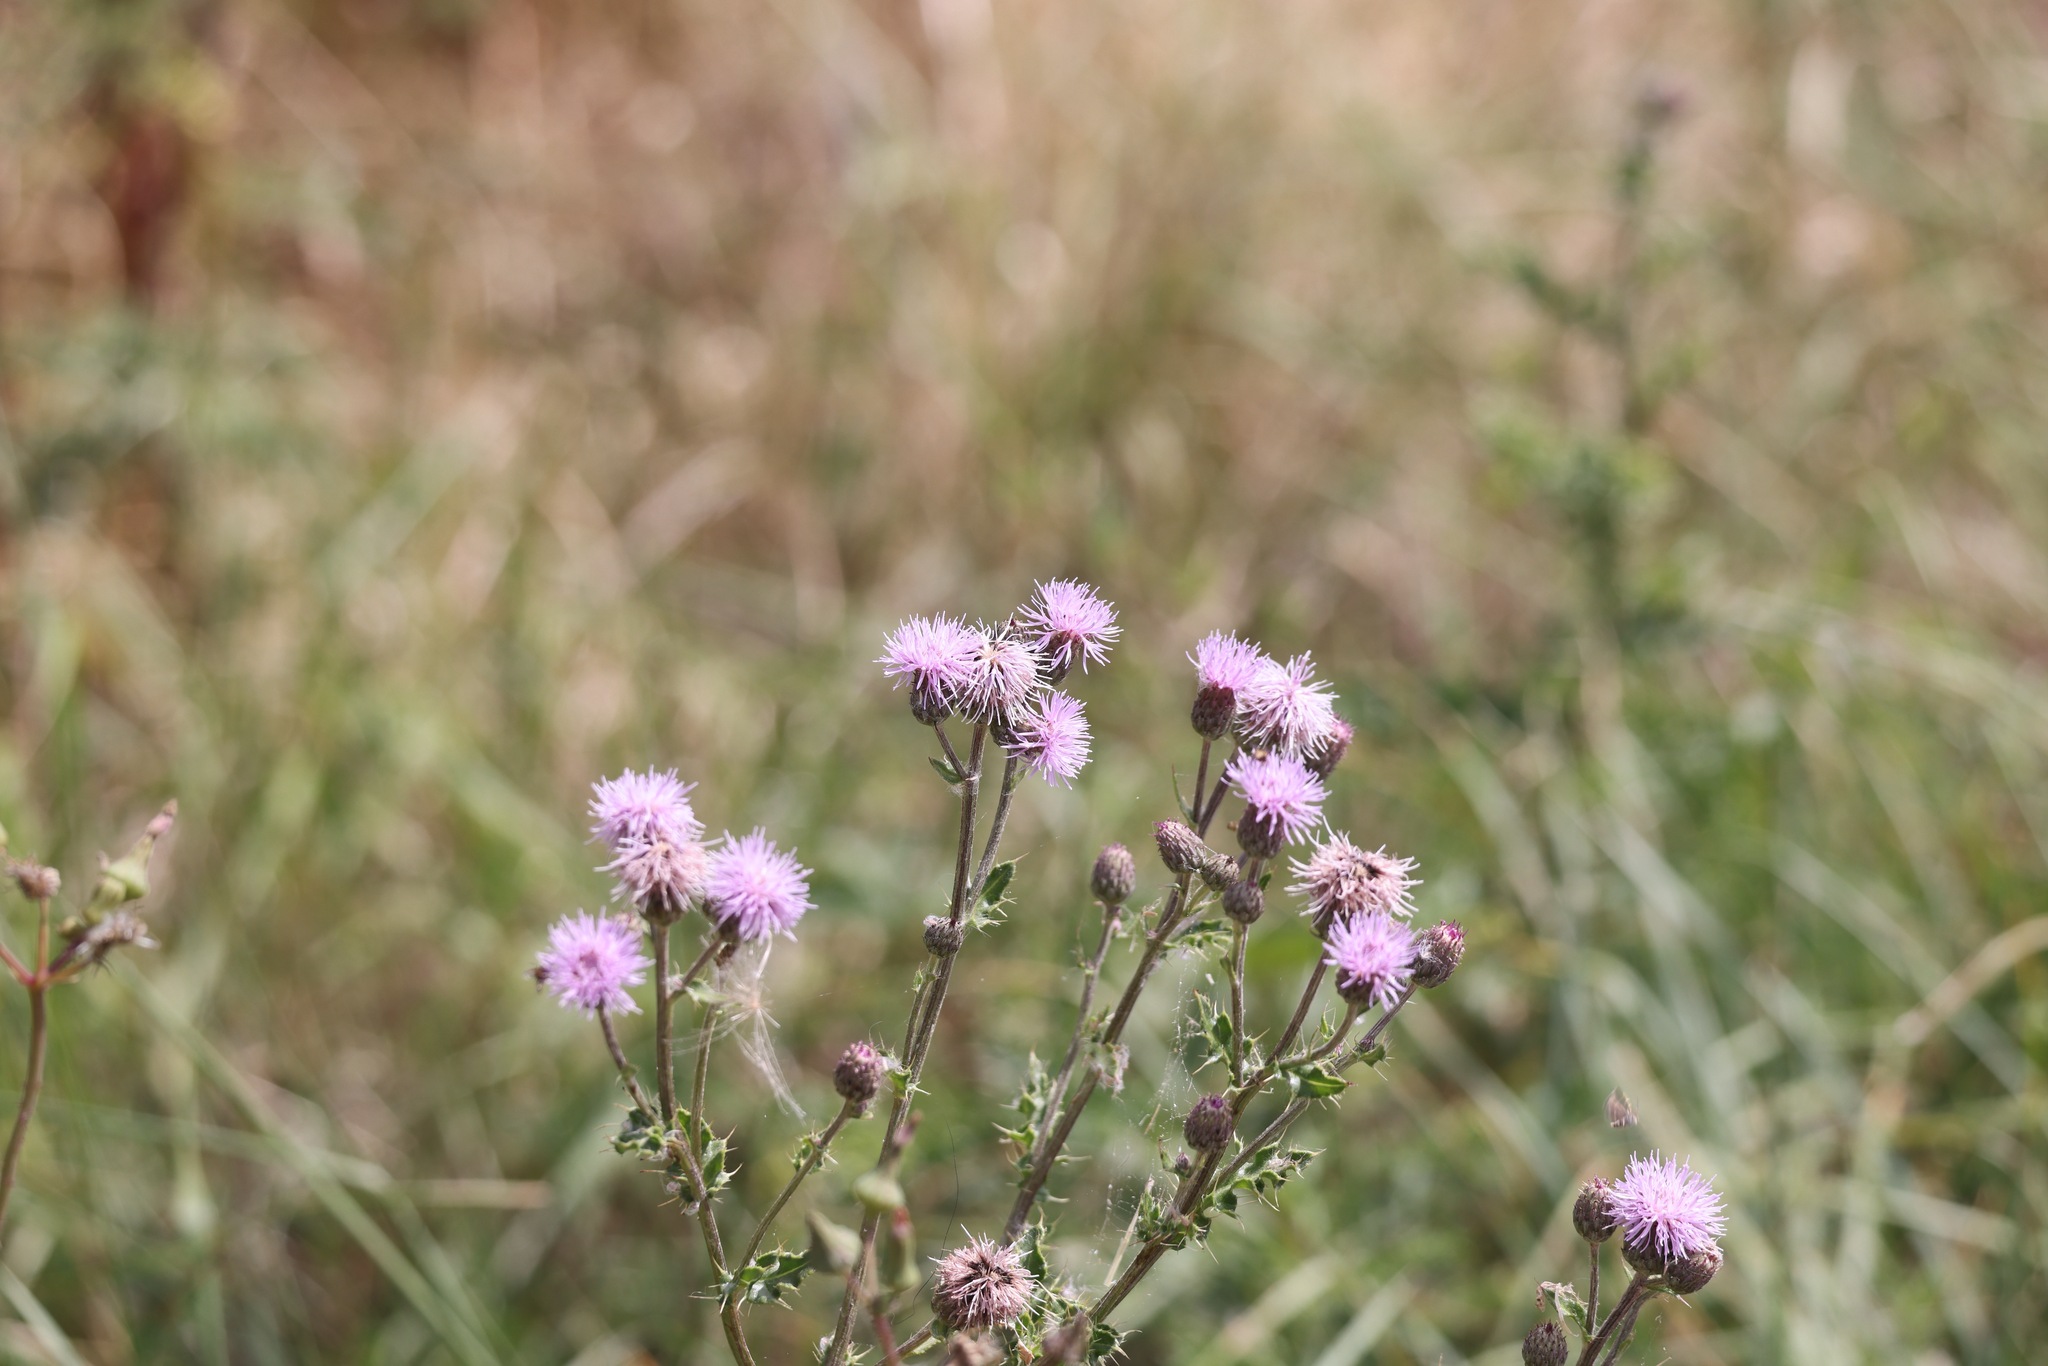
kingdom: Plantae
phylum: Tracheophyta
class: Magnoliopsida
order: Asterales
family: Asteraceae
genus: Cirsium
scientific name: Cirsium arvense
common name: Creeping thistle
